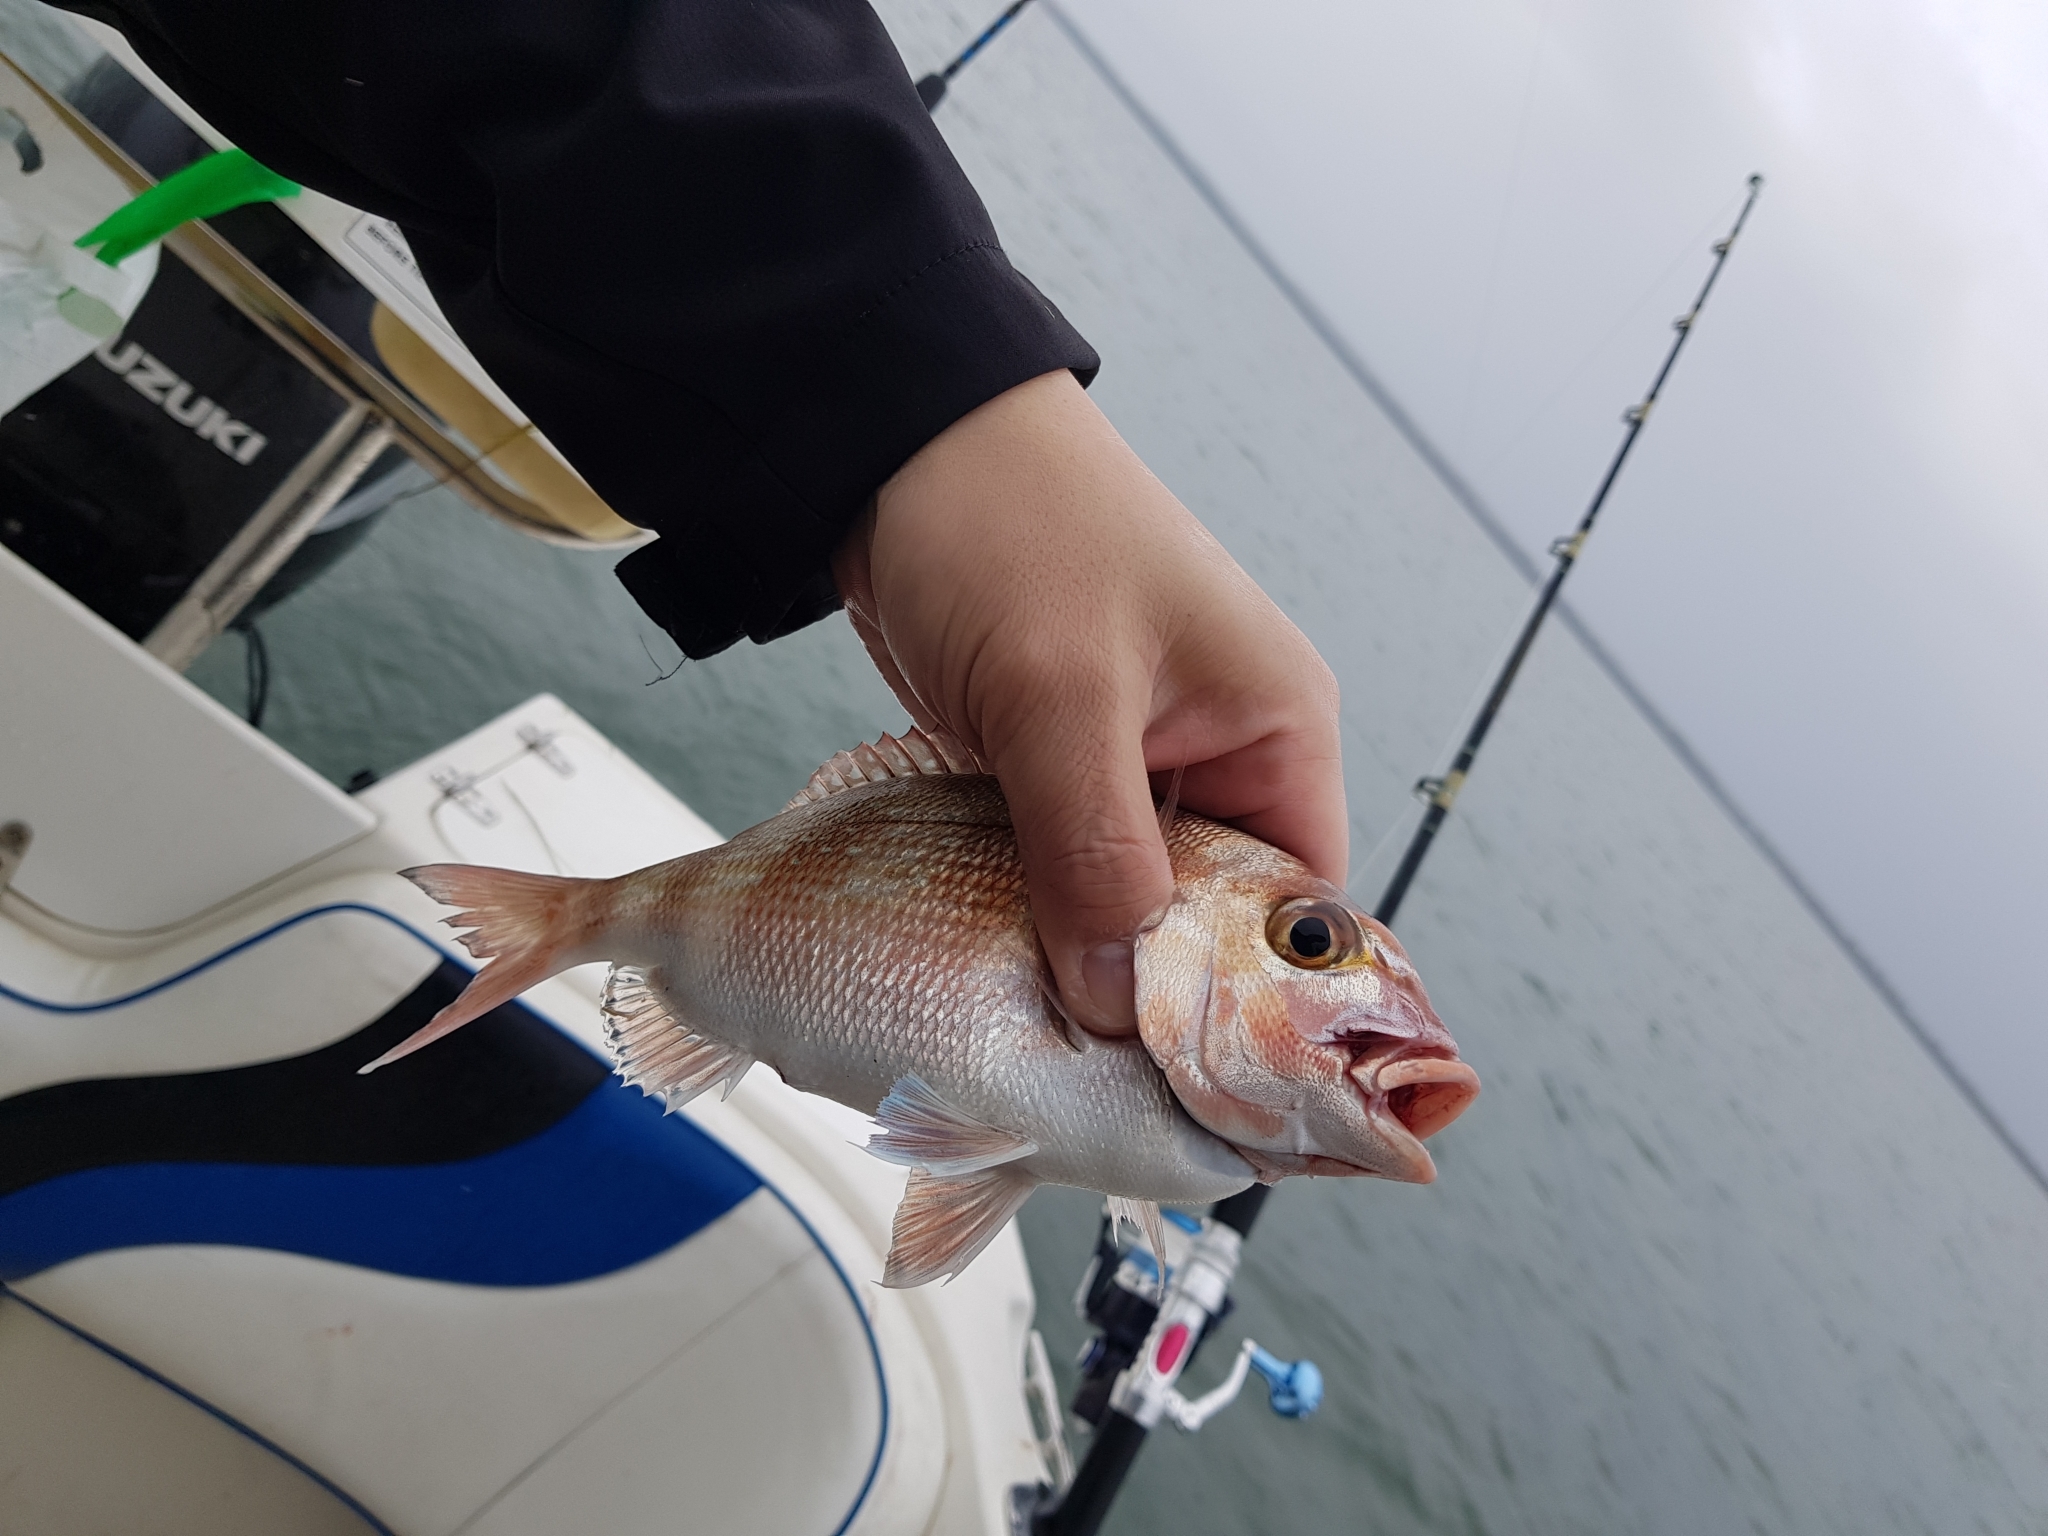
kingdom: Animalia
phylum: Chordata
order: Perciformes
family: Sparidae
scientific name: Sparidae
